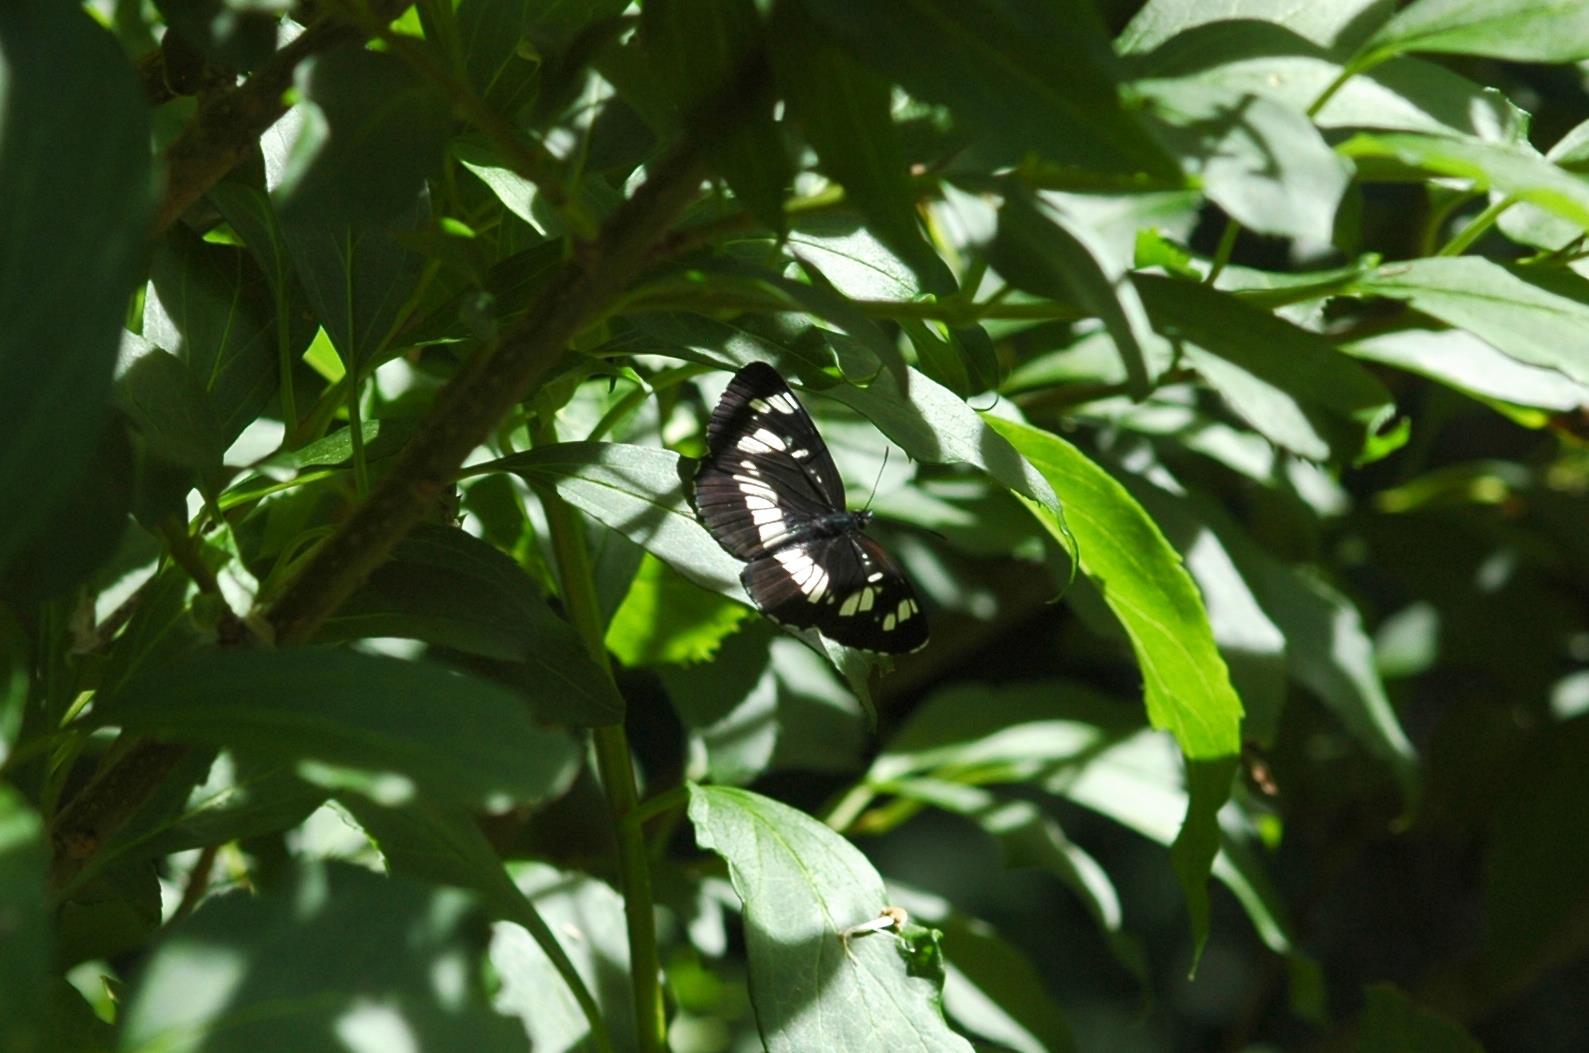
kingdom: Animalia
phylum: Arthropoda
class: Insecta
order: Lepidoptera
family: Nymphalidae
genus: Neptis
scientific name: Neptis rivularis
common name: Hungarian glider
